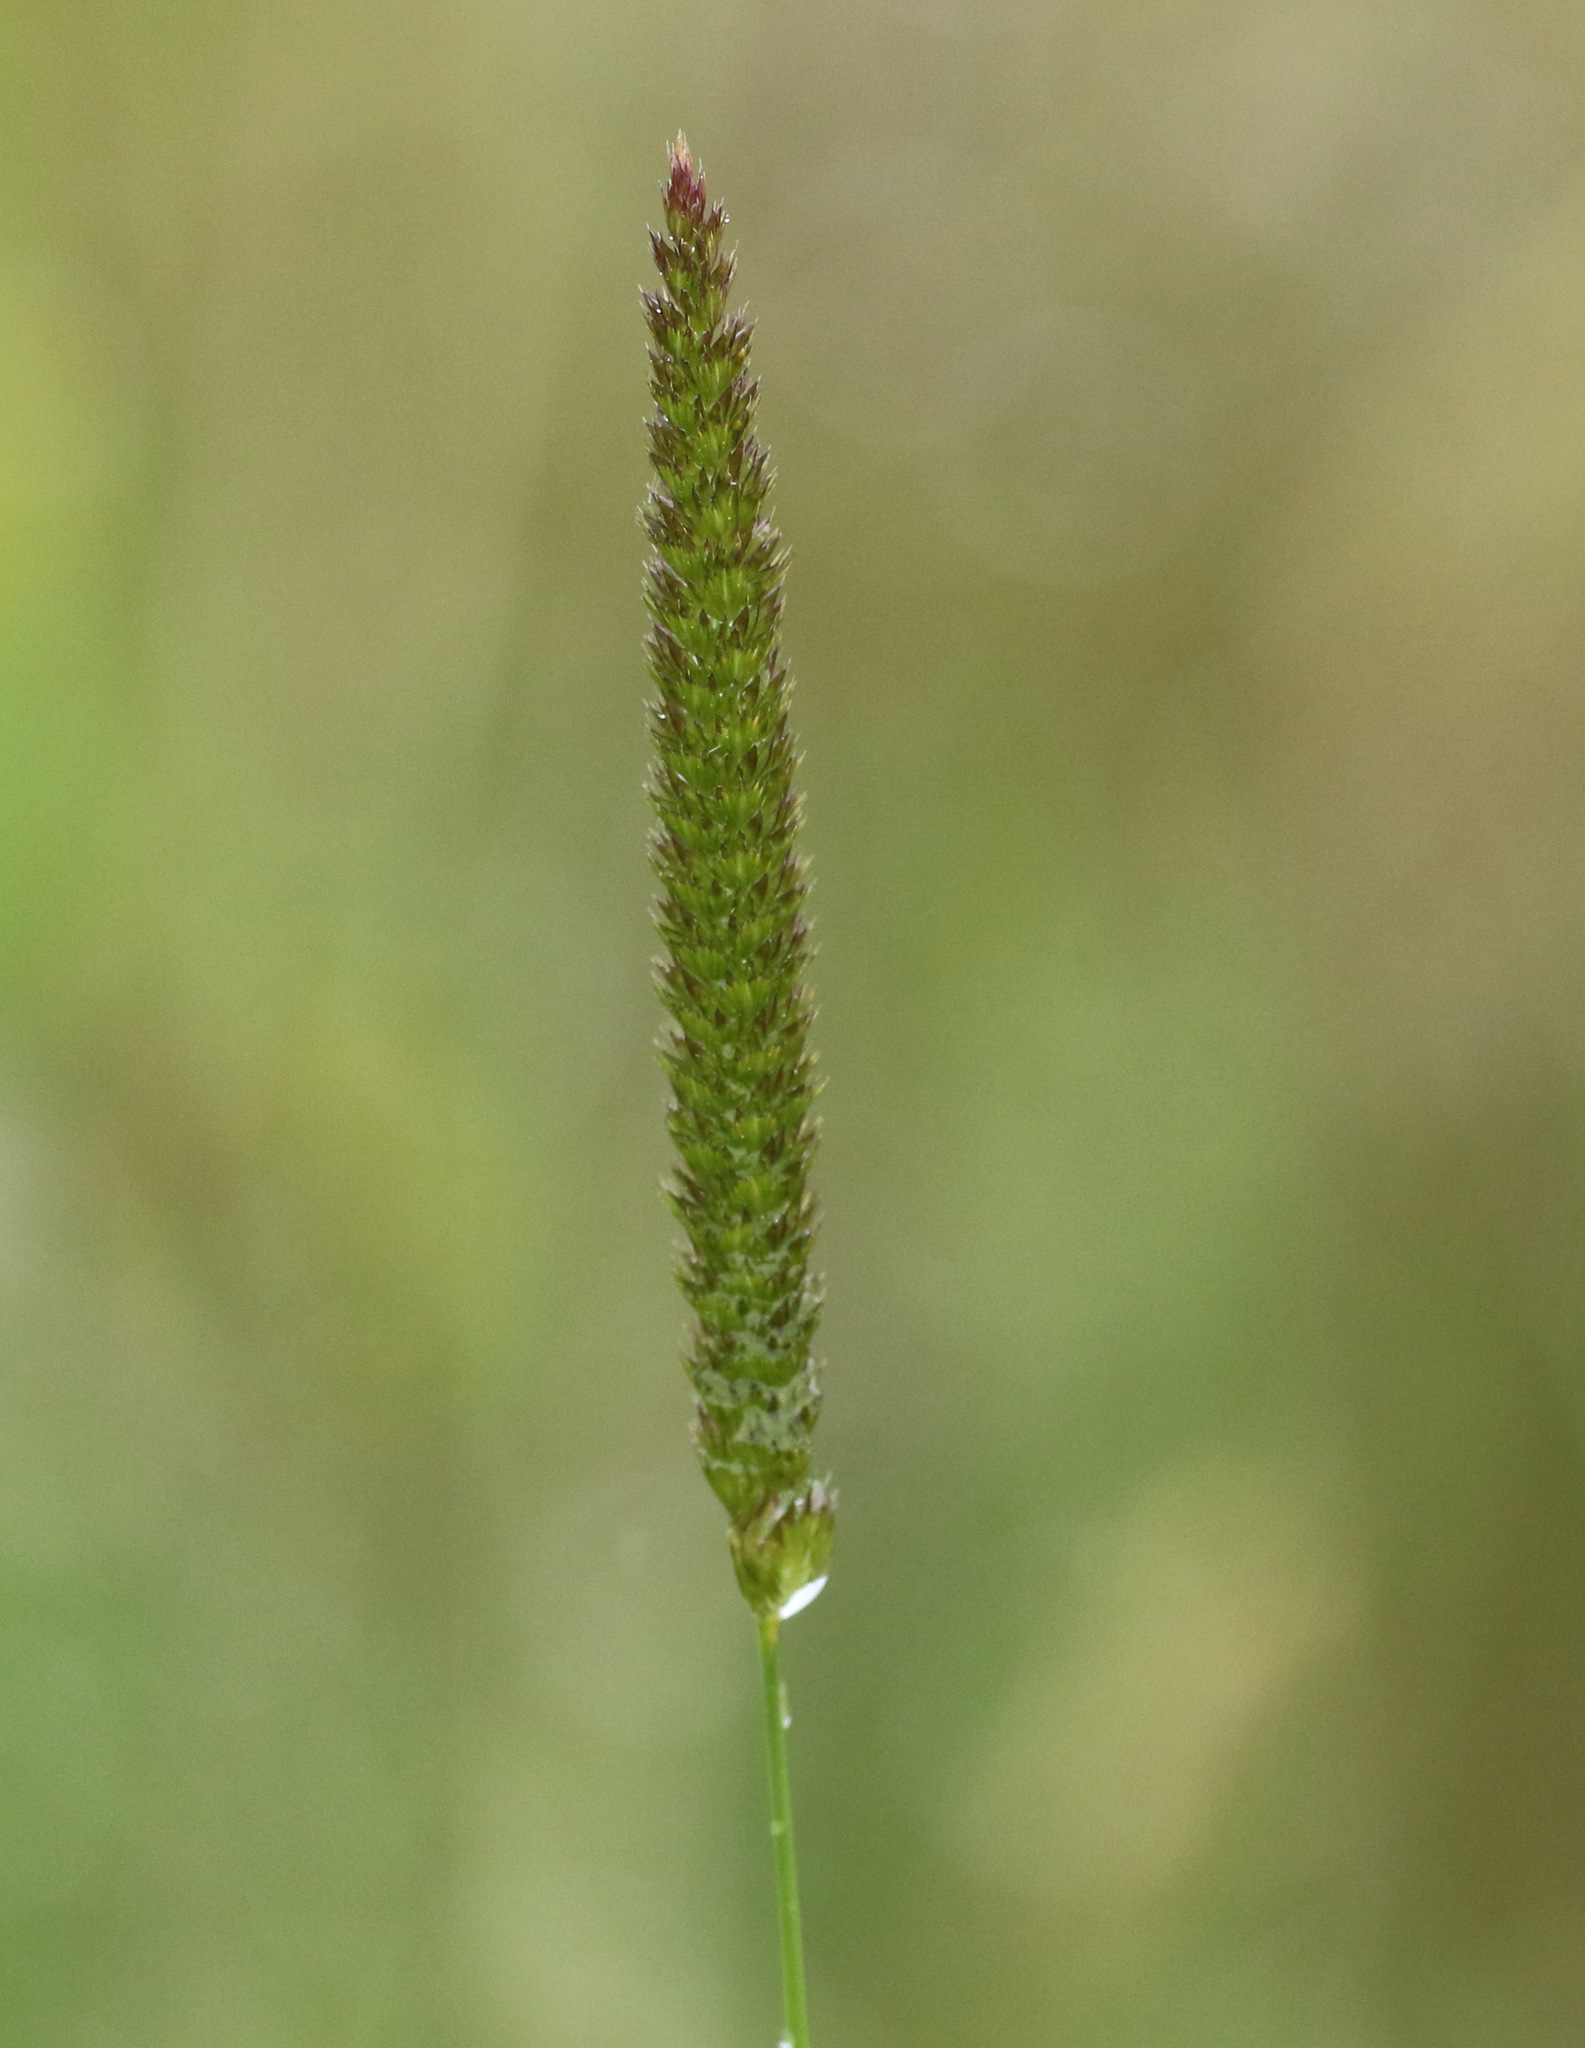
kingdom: Plantae
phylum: Tracheophyta
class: Liliopsida
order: Poales
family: Poaceae
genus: Cynosurus
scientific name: Cynosurus cristatus
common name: Crested dog's-tail
